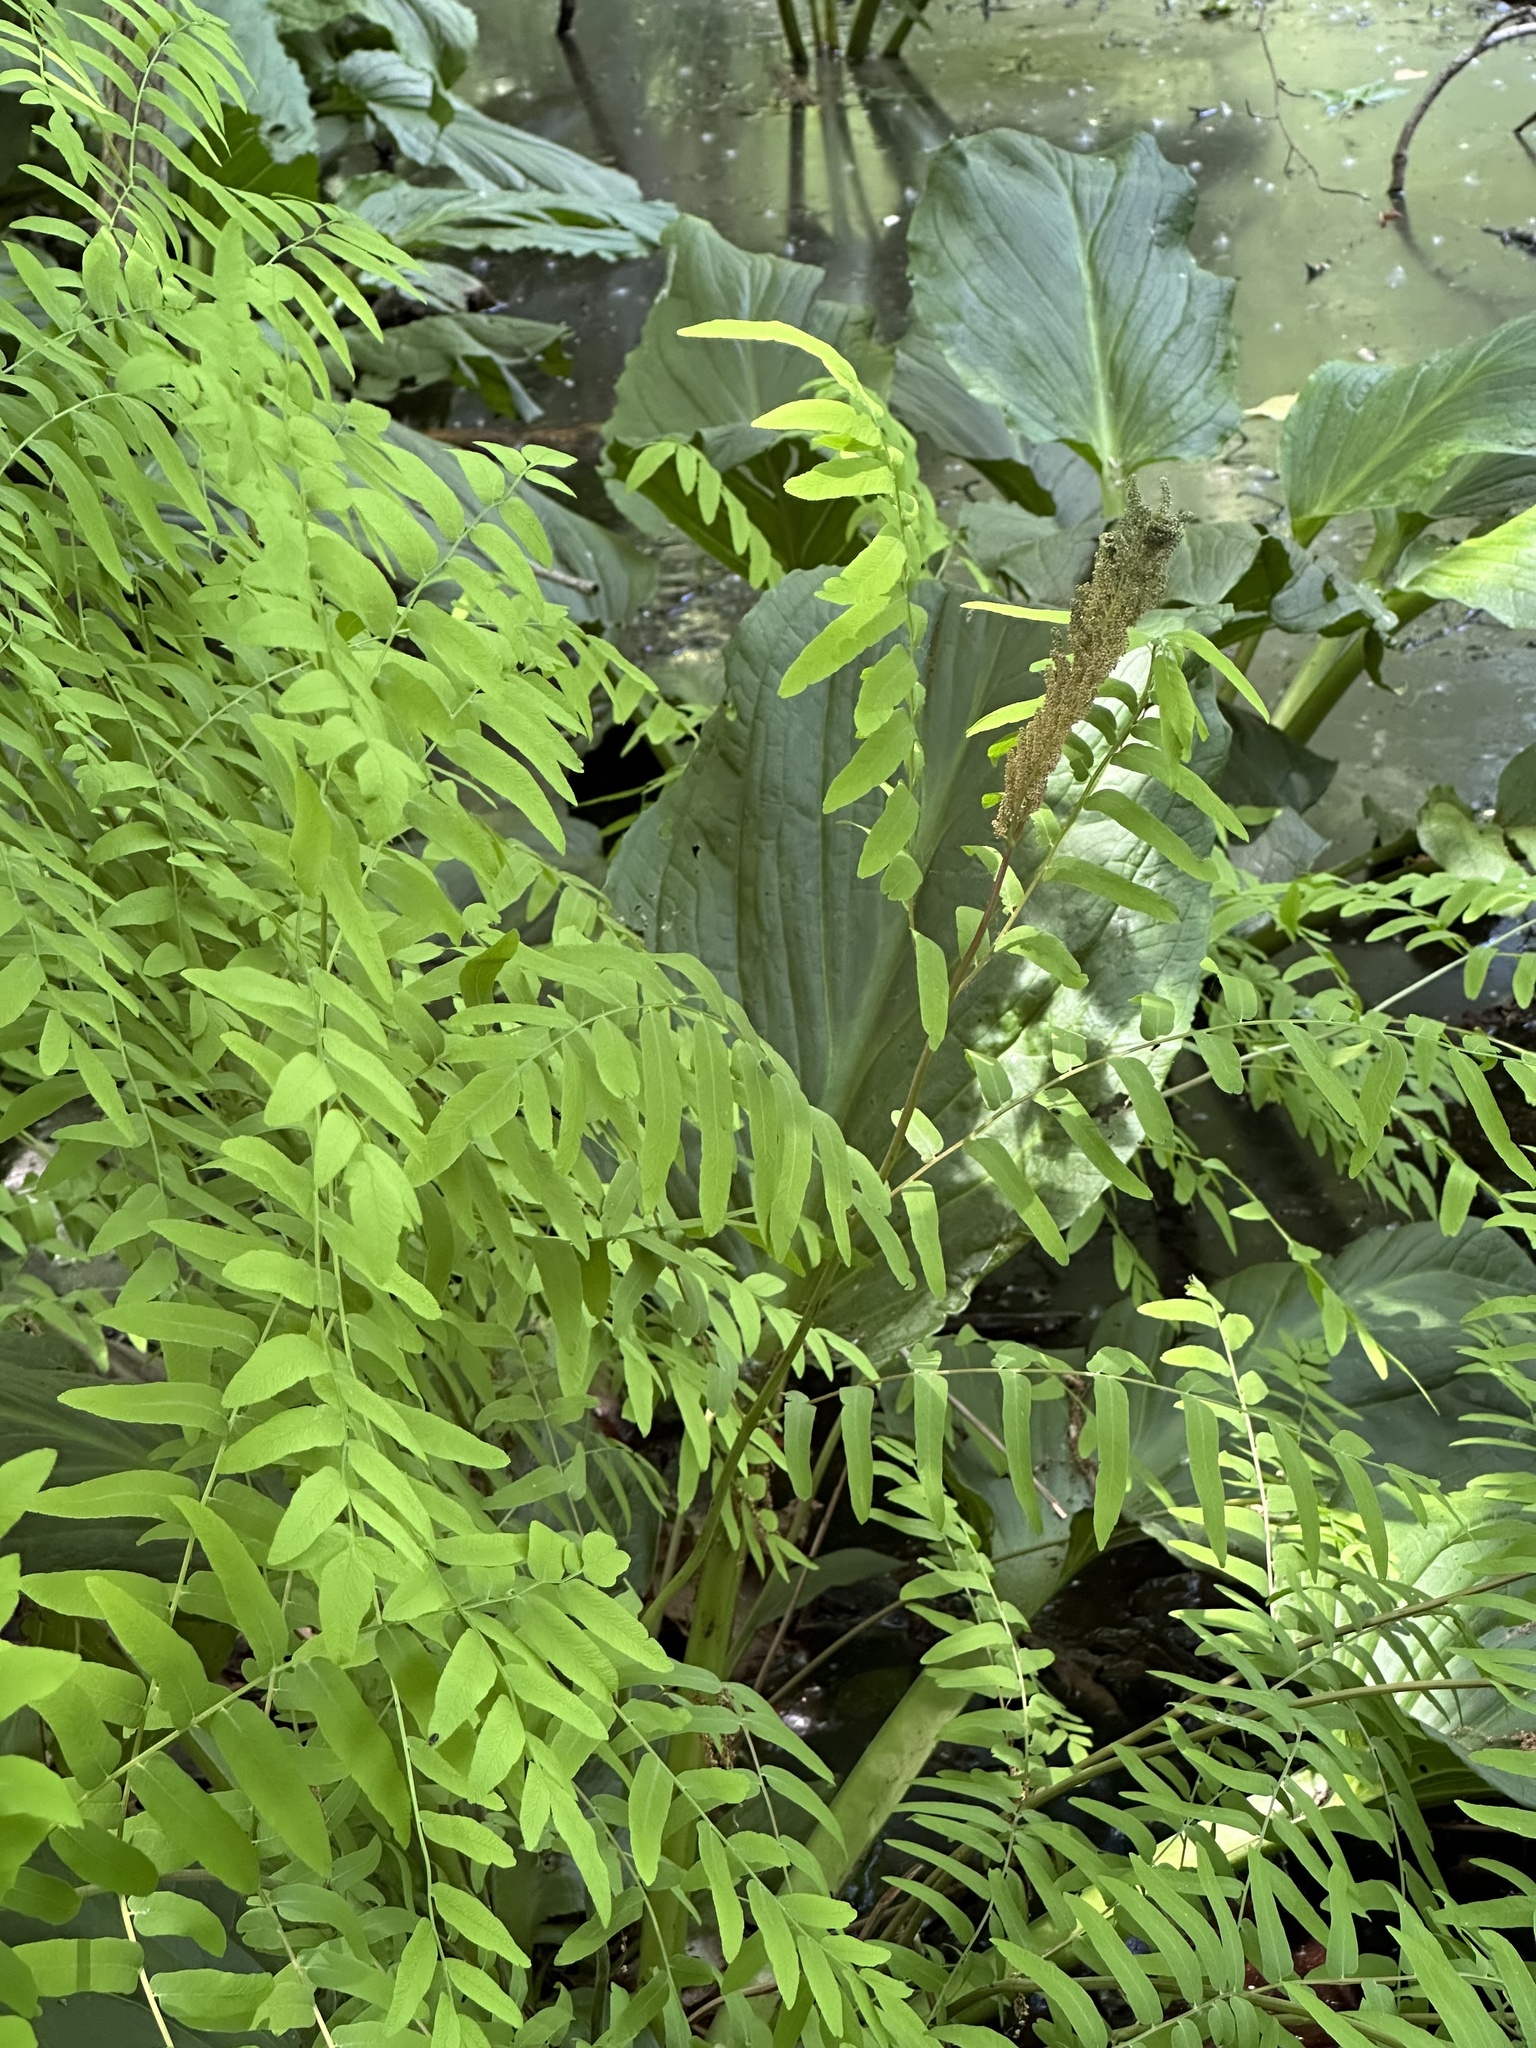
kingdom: Plantae
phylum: Tracheophyta
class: Polypodiopsida
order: Osmundales
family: Osmundaceae
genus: Osmunda
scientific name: Osmunda spectabilis
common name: American royal fern
